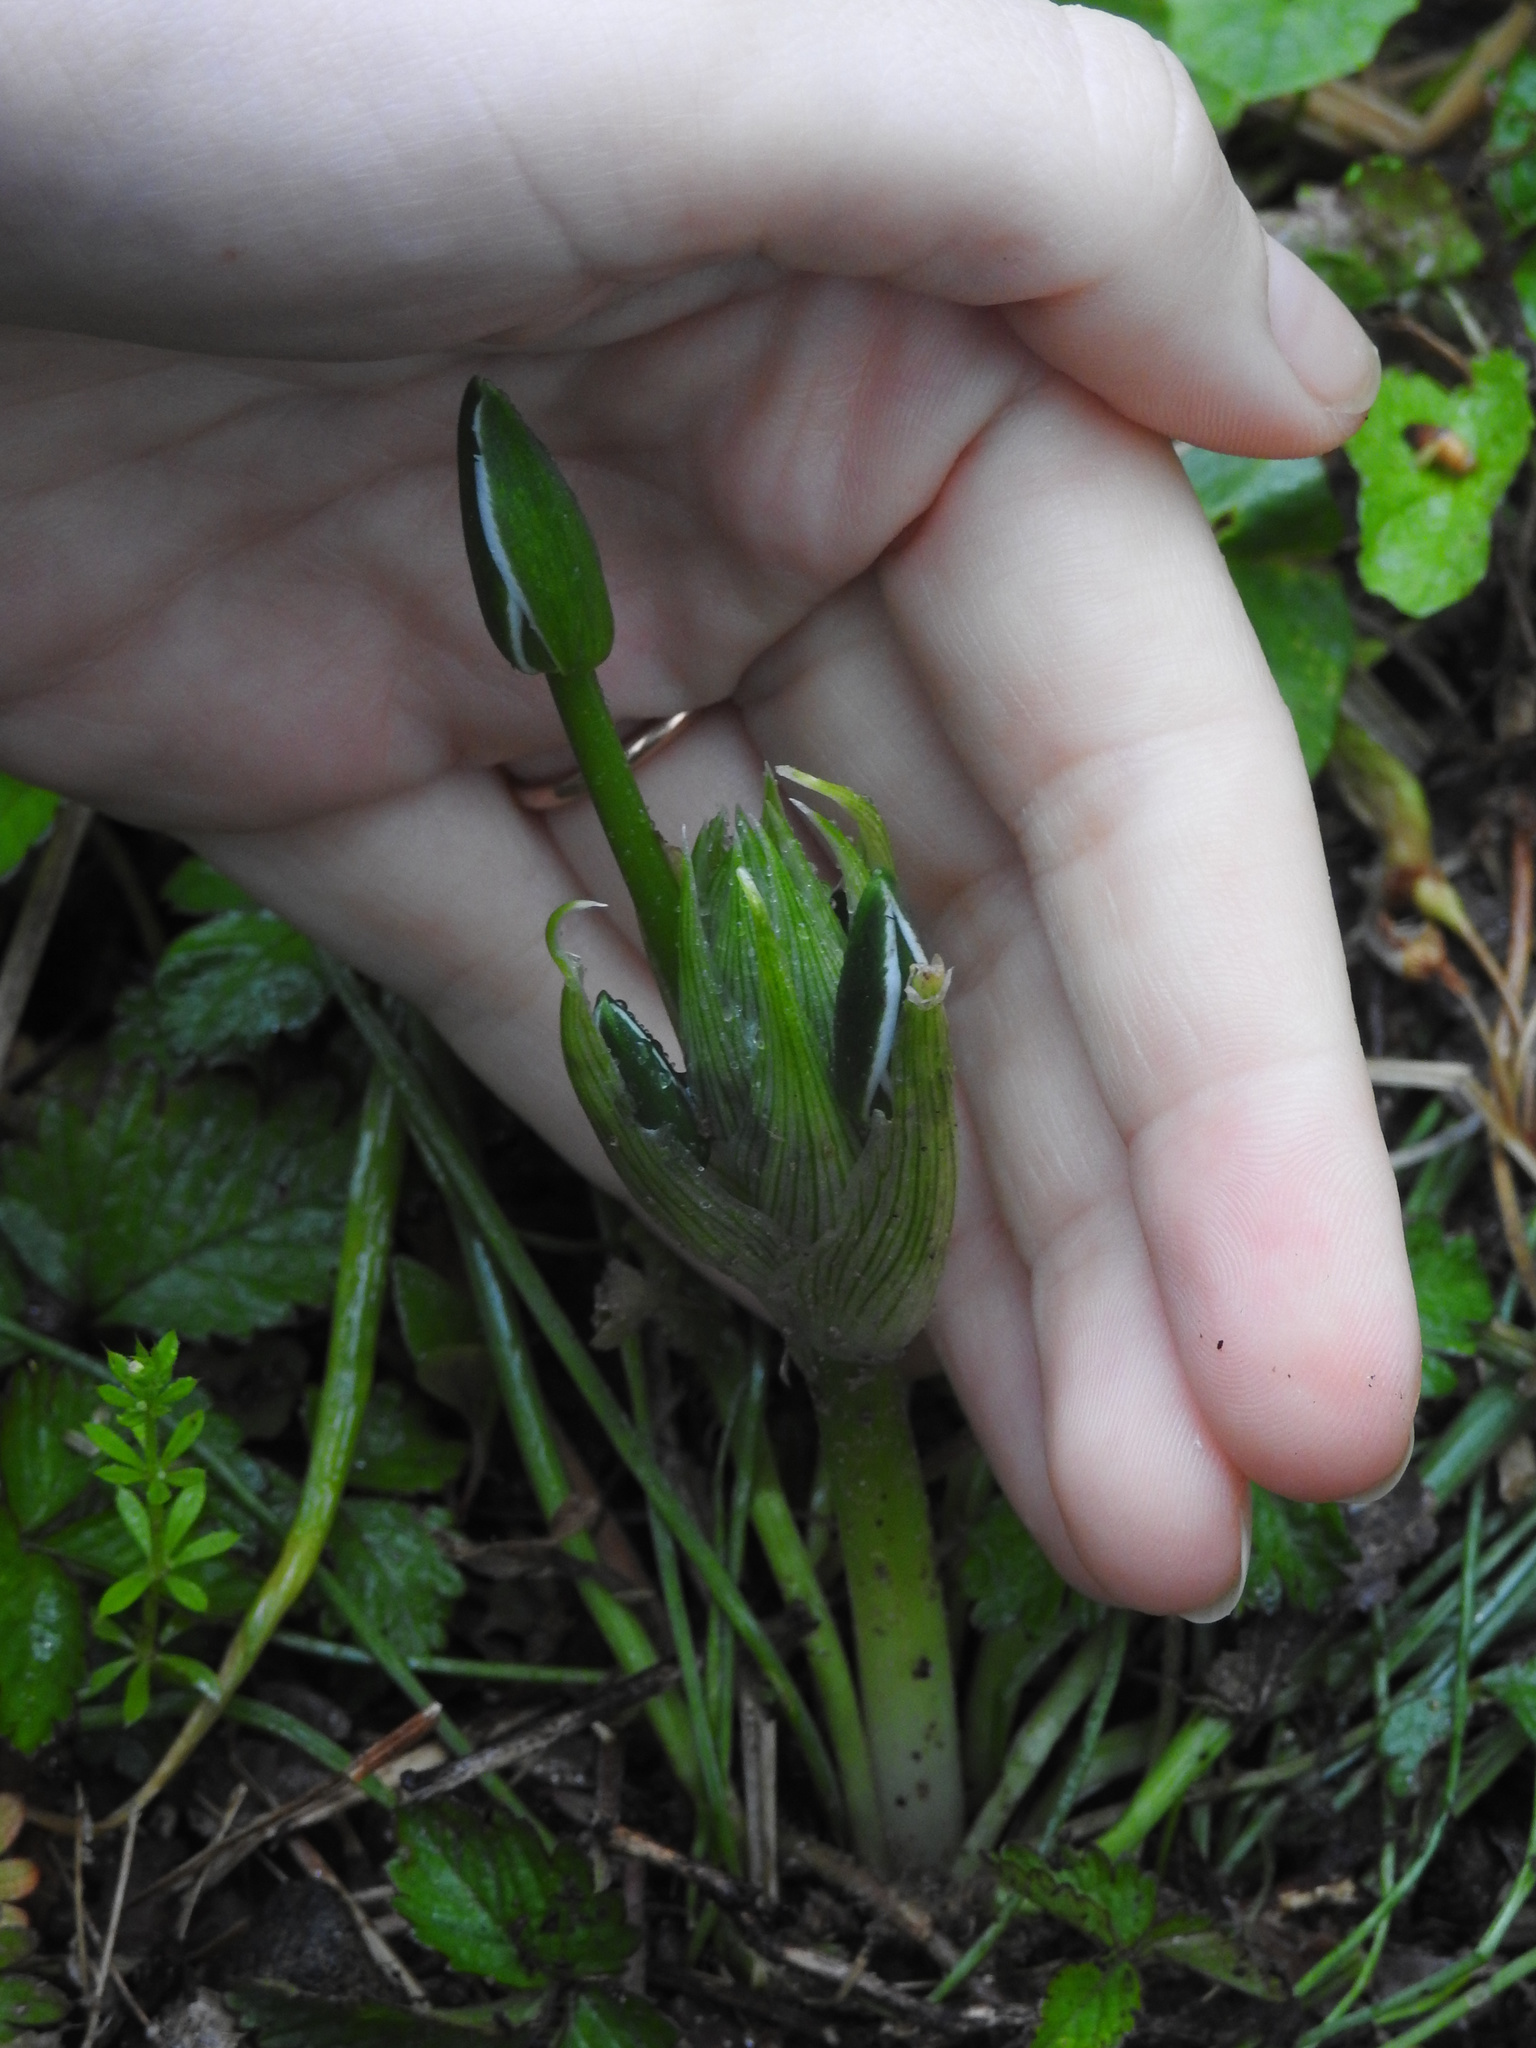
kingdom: Plantae
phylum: Tracheophyta
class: Liliopsida
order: Asparagales
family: Asparagaceae
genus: Ornithogalum
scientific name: Ornithogalum umbellatum
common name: Garden star-of-bethlehem
